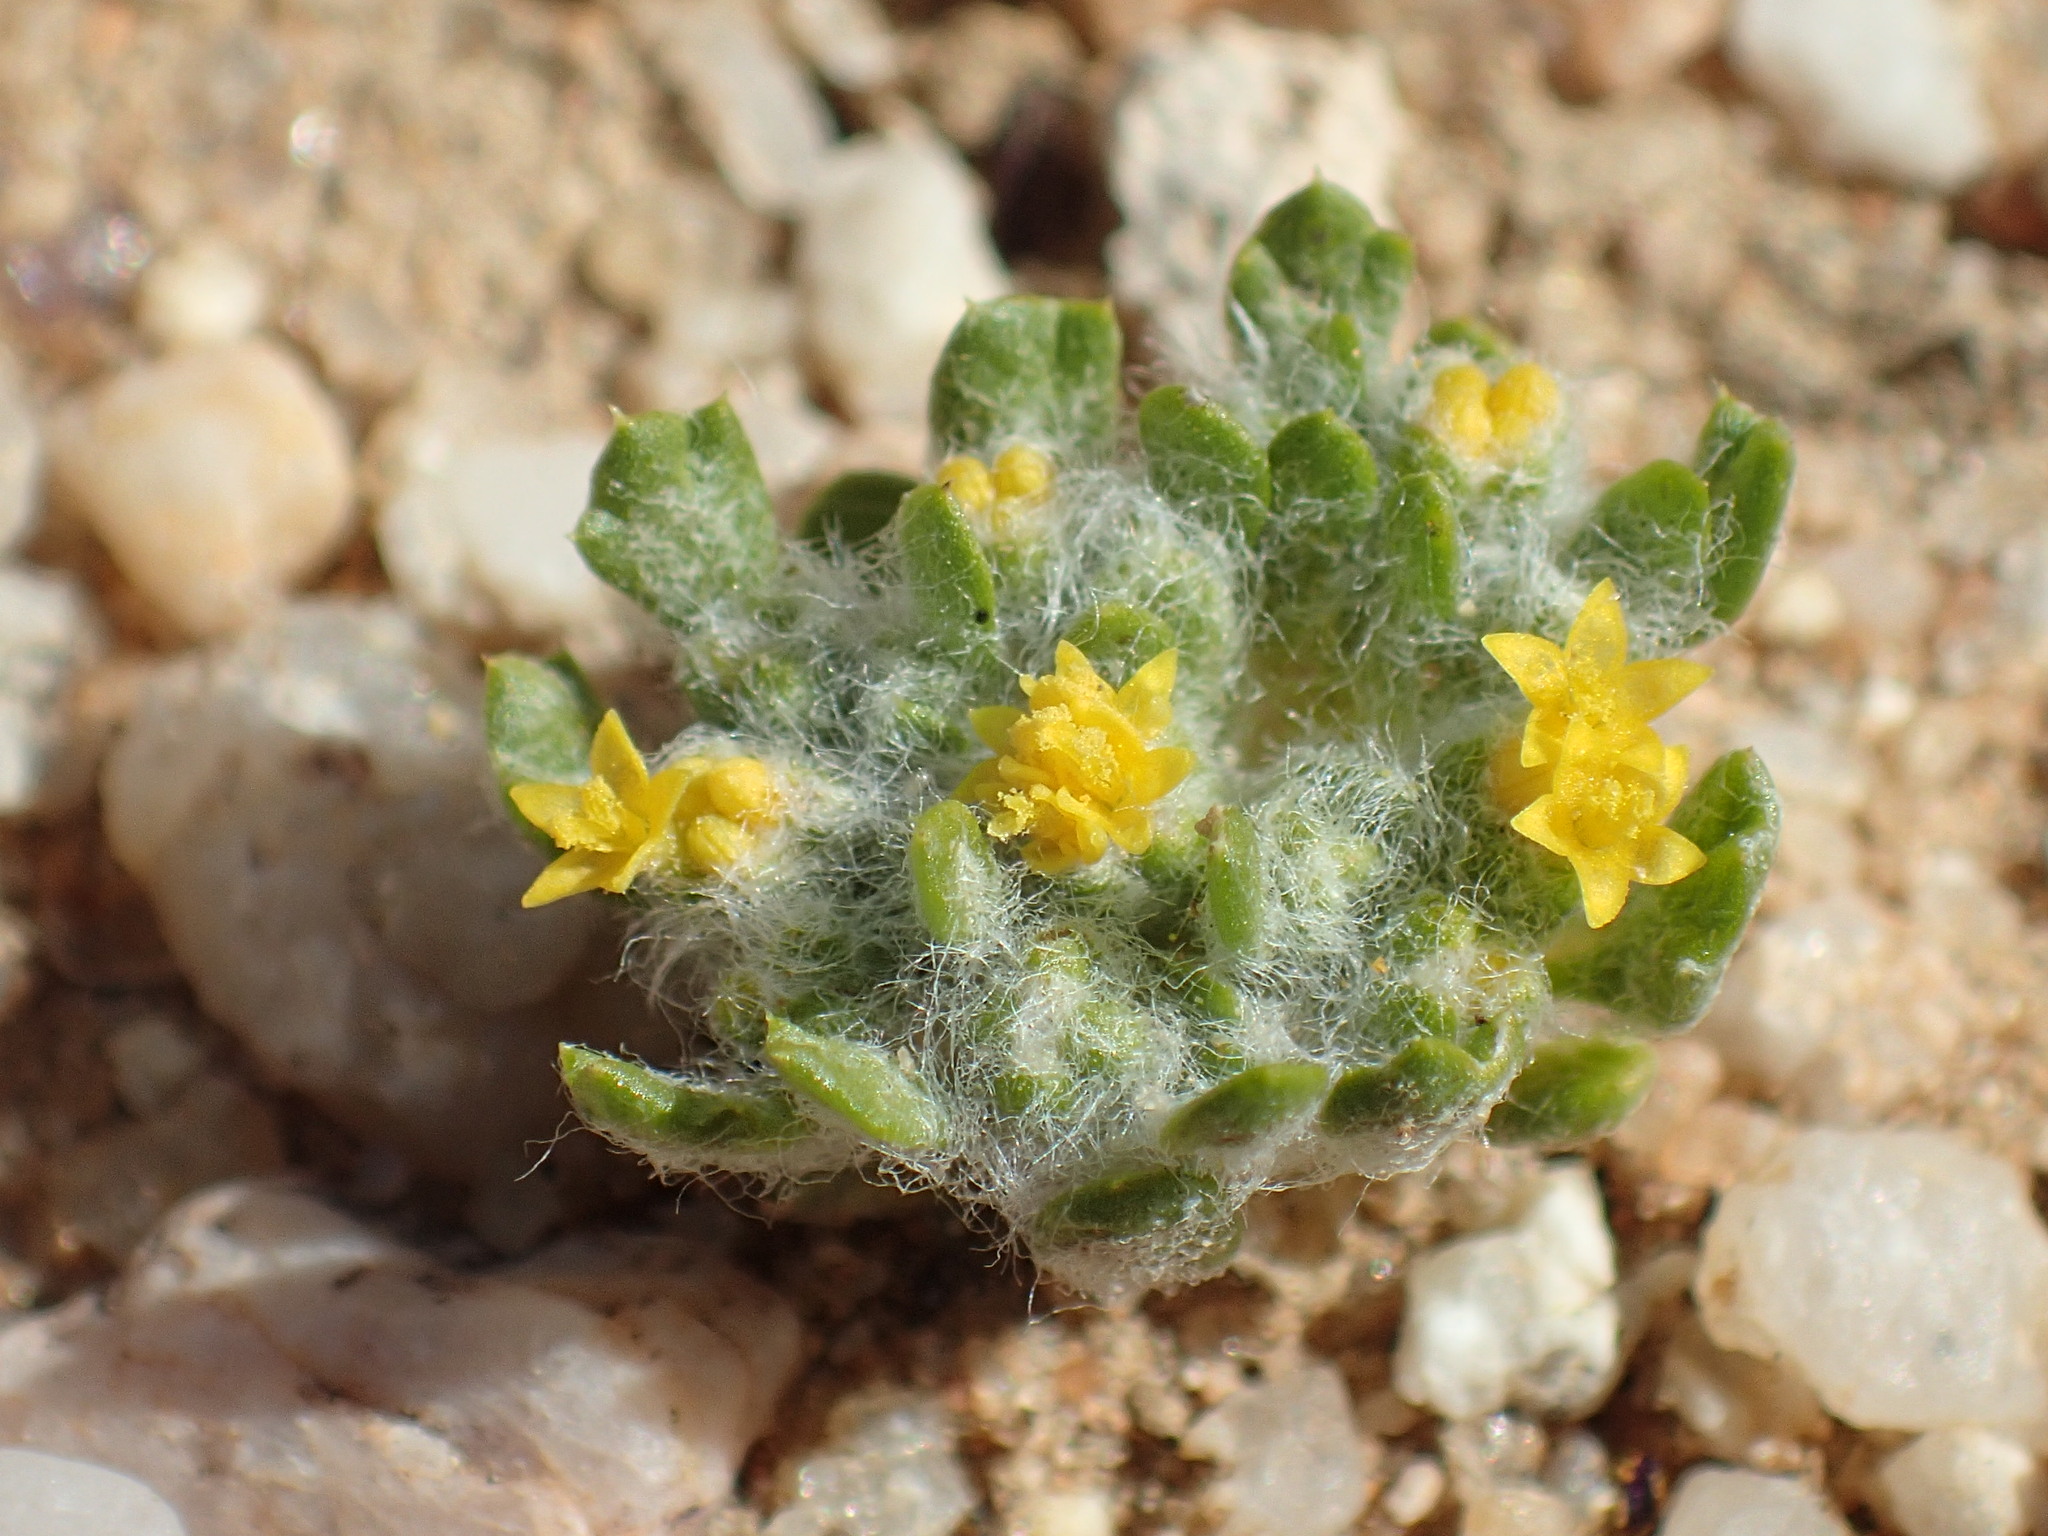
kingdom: Plantae
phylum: Tracheophyta
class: Magnoliopsida
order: Asterales
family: Asteraceae
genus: Eriophyllum
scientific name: Eriophyllum mohavense
